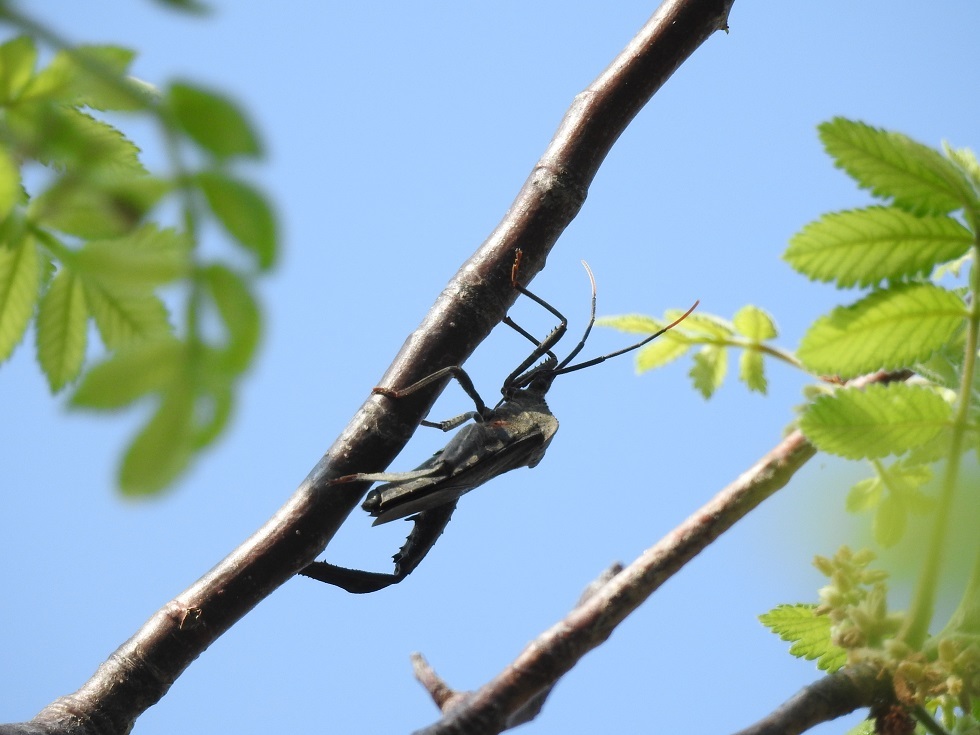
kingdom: Animalia
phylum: Arthropoda
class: Insecta
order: Hemiptera
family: Coreidae
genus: Acanthocephala
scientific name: Acanthocephala alata
